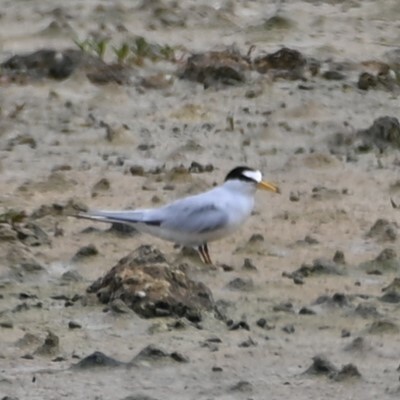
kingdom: Animalia
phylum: Chordata
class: Aves
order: Charadriiformes
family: Laridae
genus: Sternula
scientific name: Sternula antillarum
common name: Least tern
